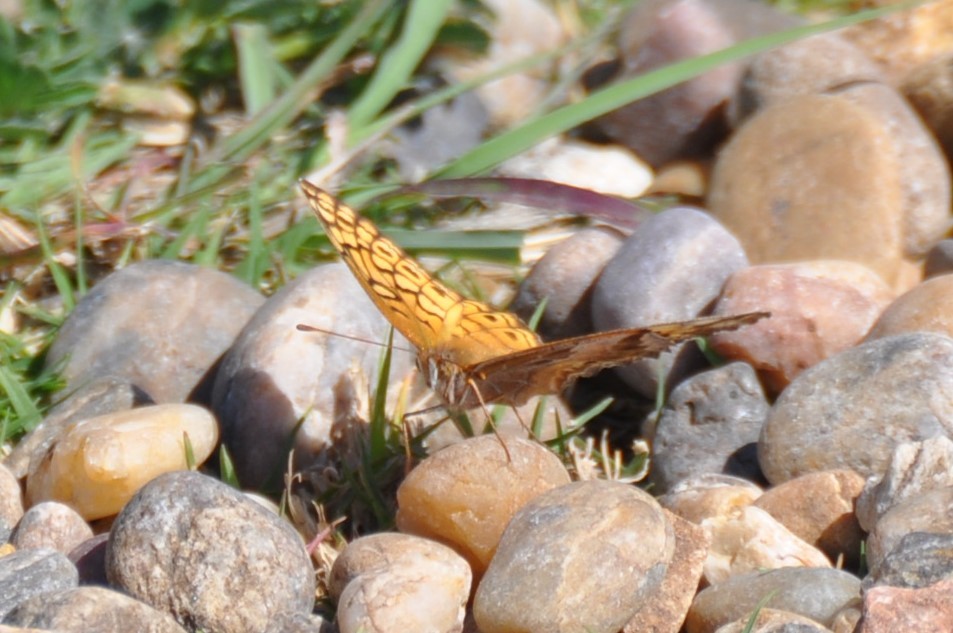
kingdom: Animalia
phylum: Arthropoda
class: Insecta
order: Lepidoptera
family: Nymphalidae
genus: Euptoieta
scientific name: Euptoieta claudia
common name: Variegated fritillary
